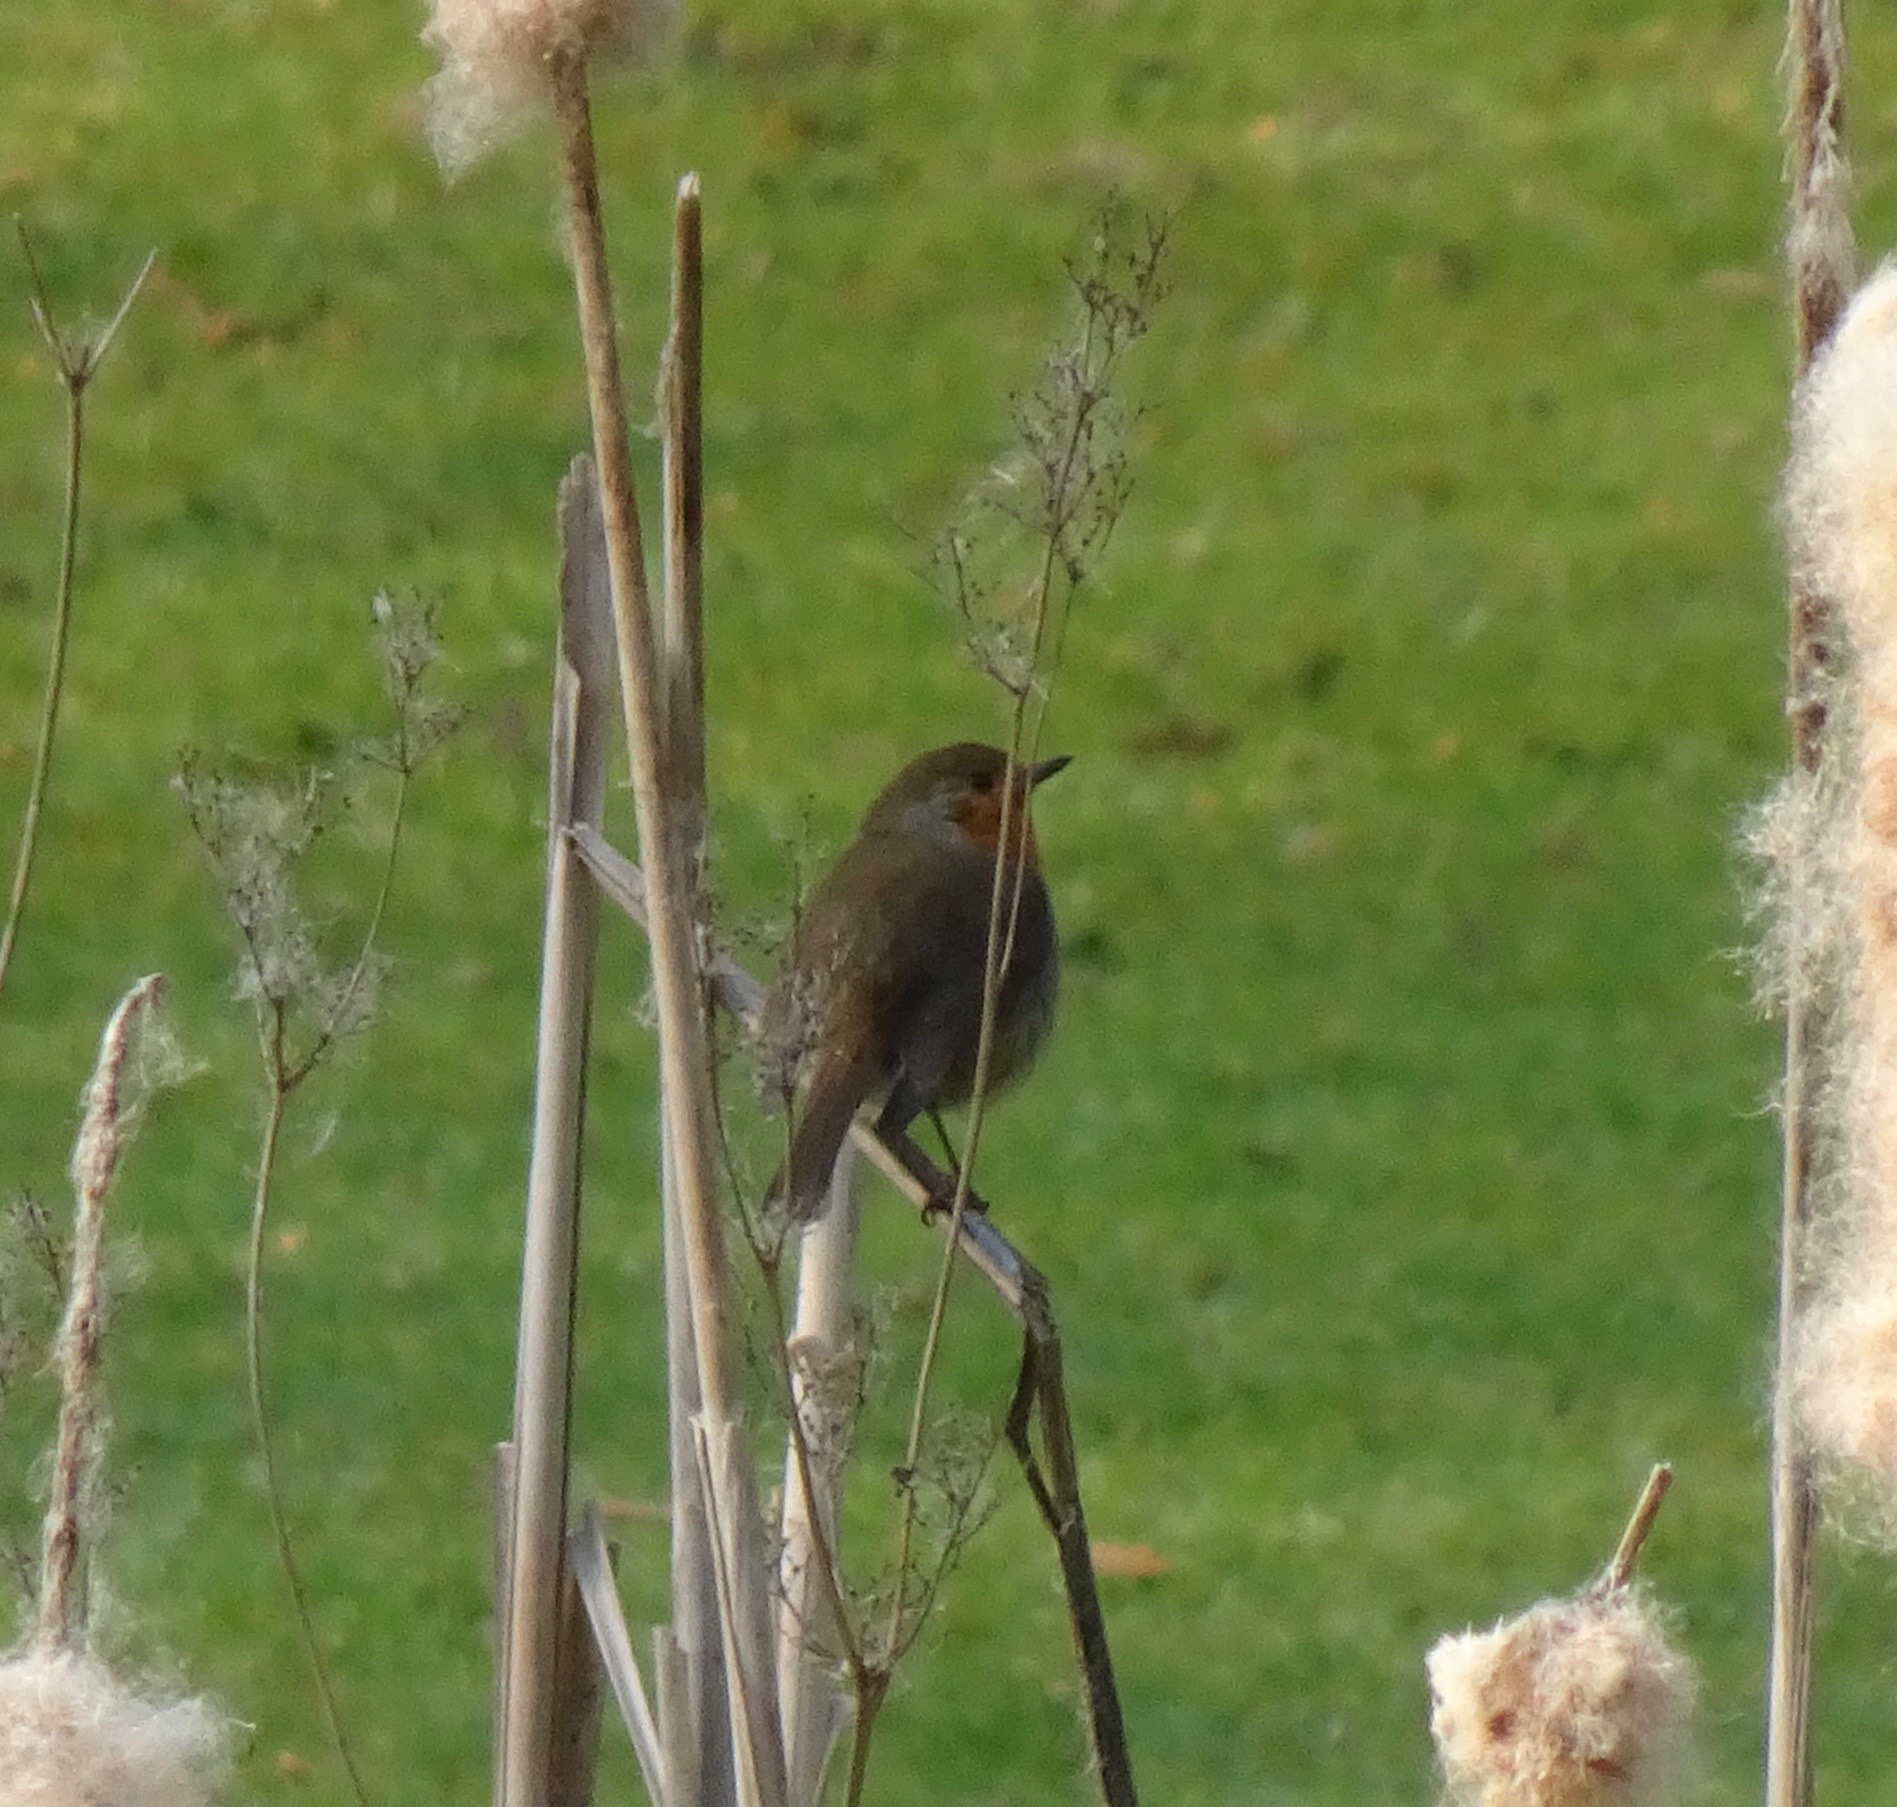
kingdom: Animalia
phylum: Chordata
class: Aves
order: Passeriformes
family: Muscicapidae
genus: Erithacus
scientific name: Erithacus rubecula
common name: European robin
